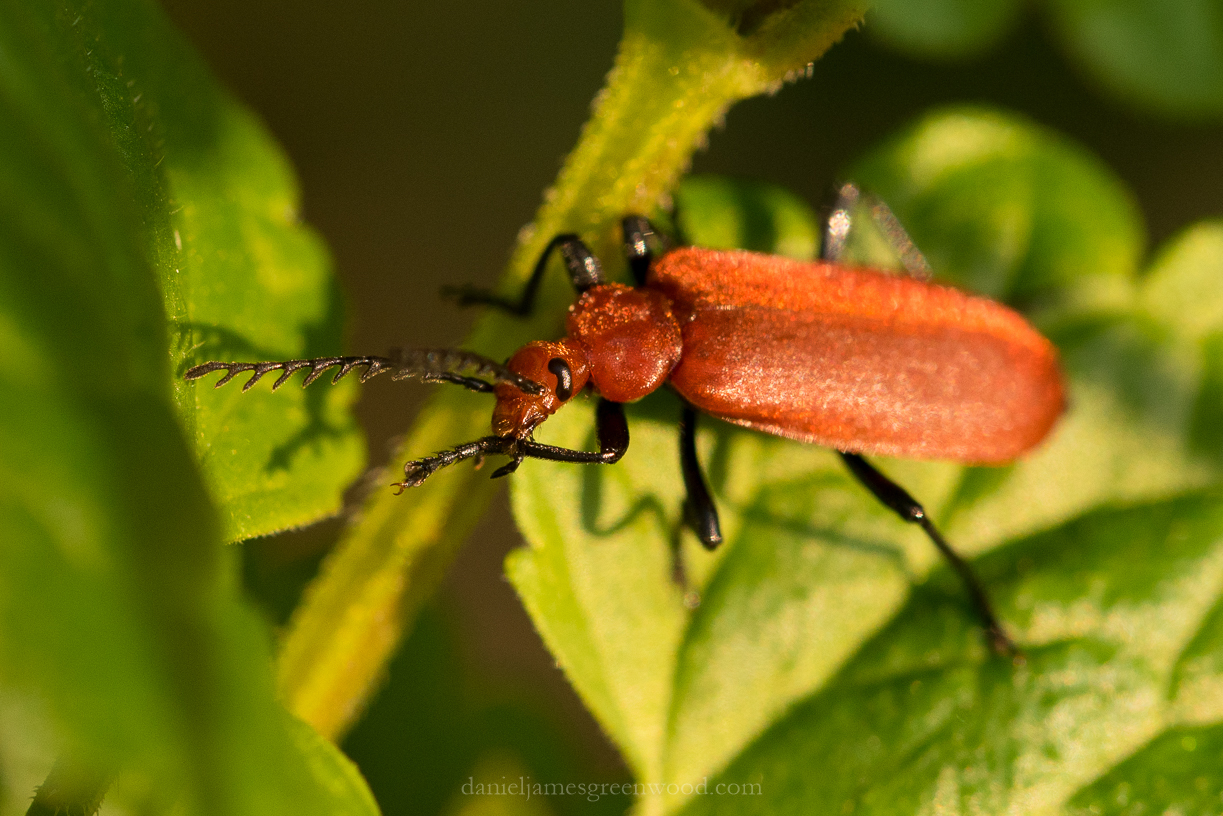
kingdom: Animalia
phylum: Arthropoda
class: Insecta
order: Coleoptera
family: Pyrochroidae
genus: Pyrochroa
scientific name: Pyrochroa serraticornis
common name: Red-headed cardinal beetle
